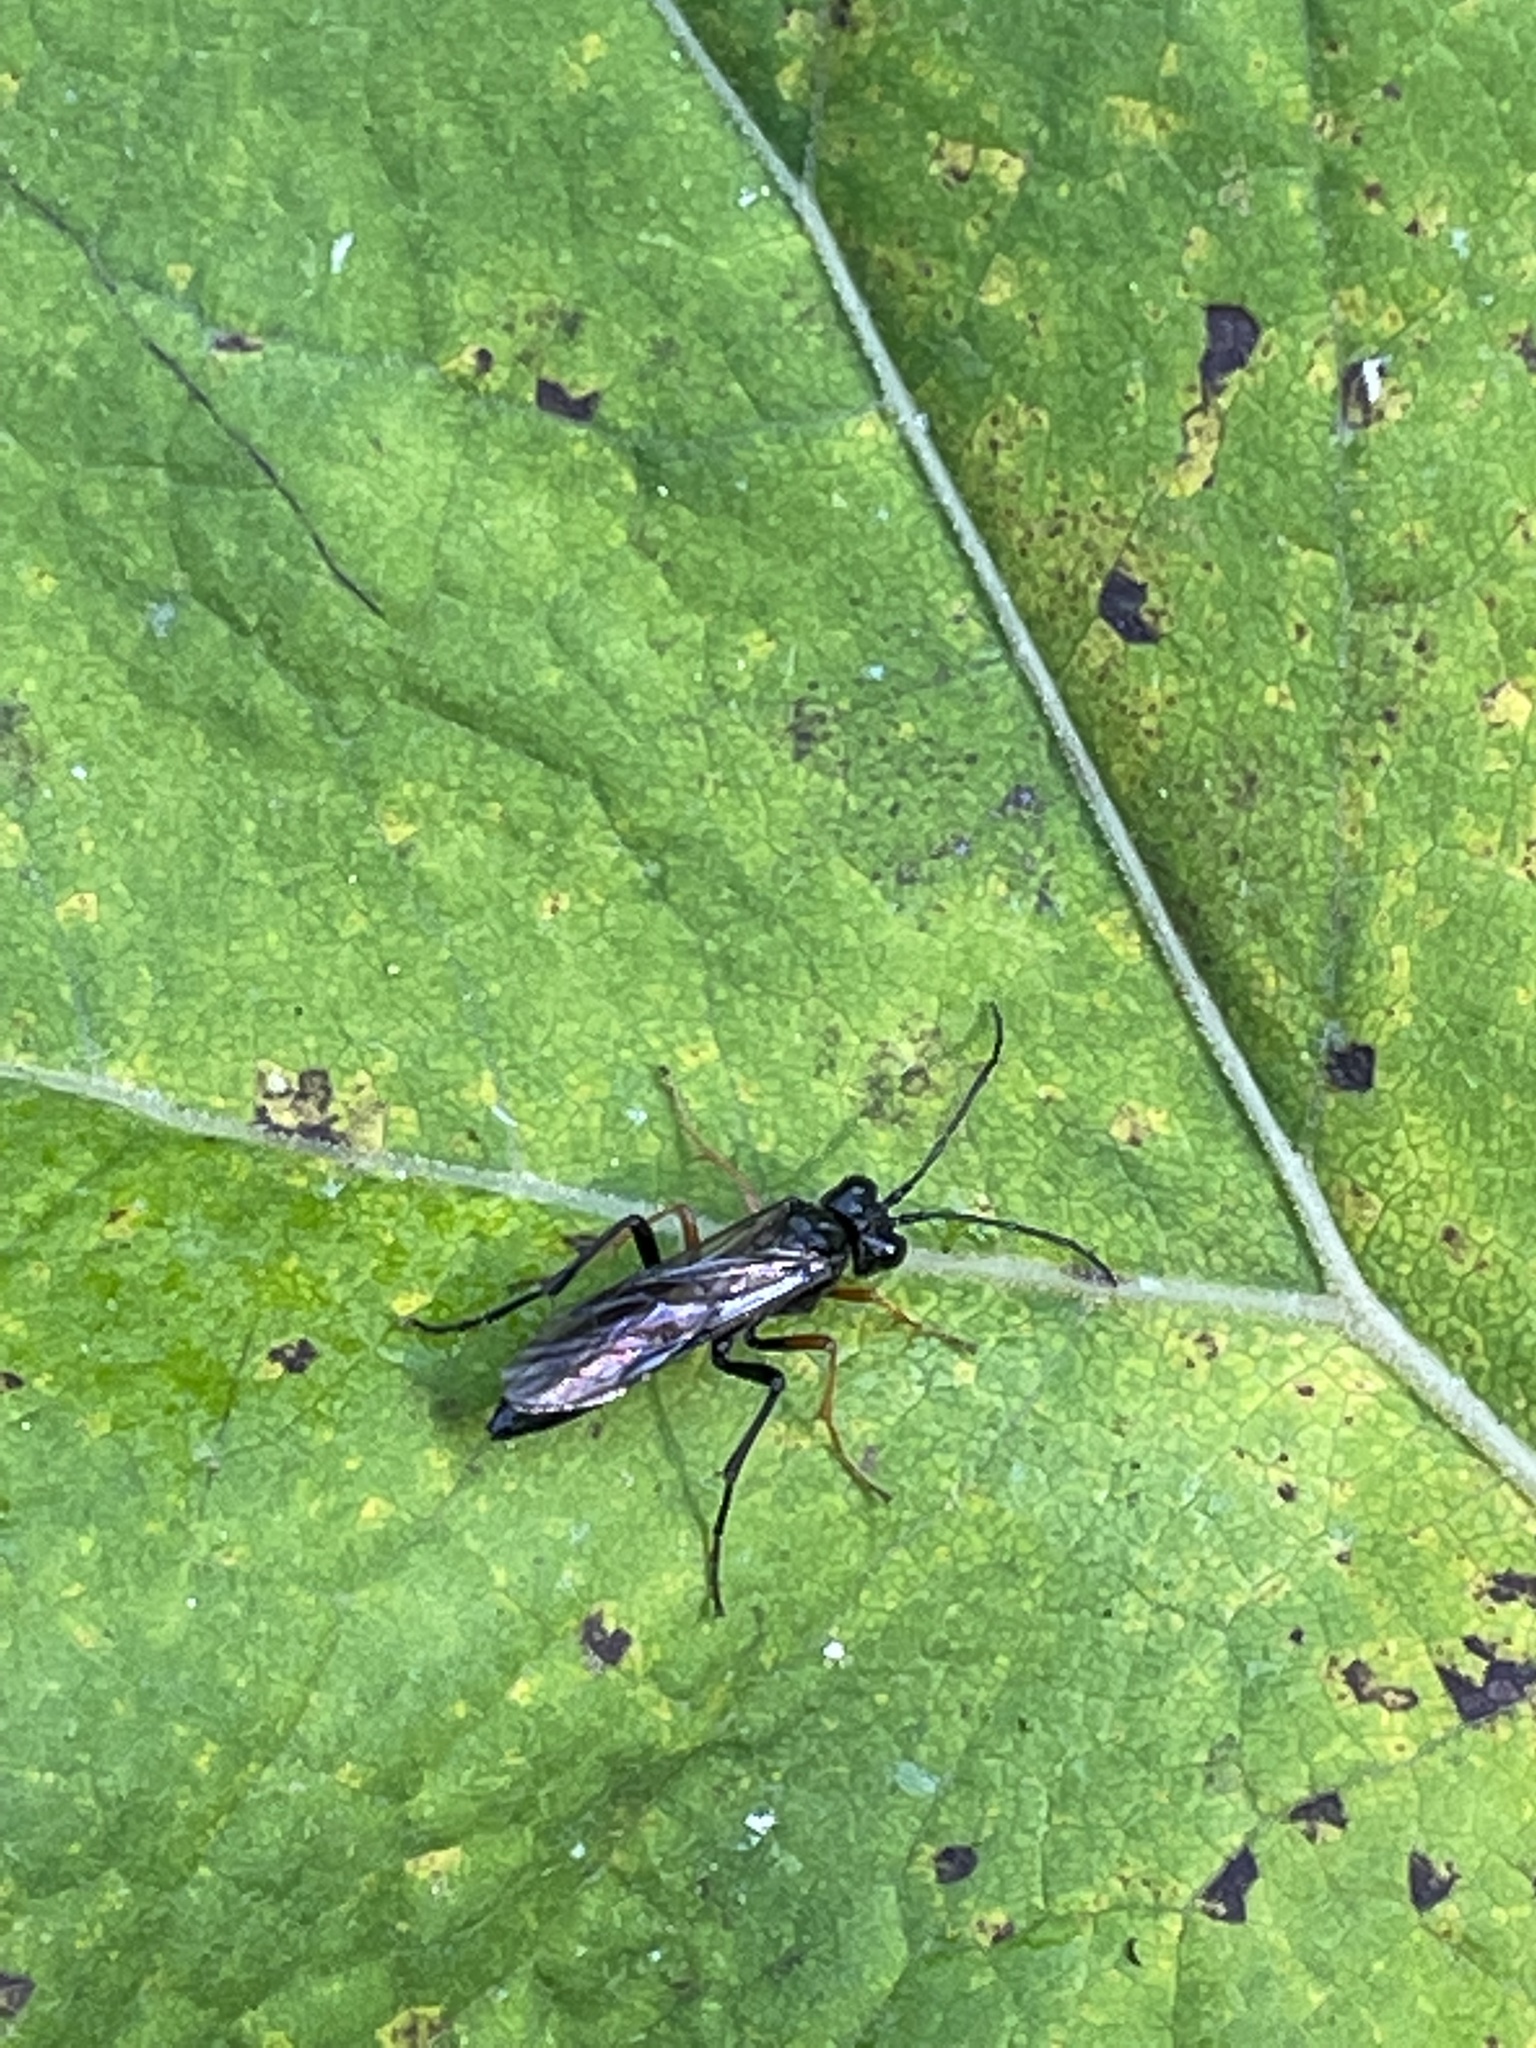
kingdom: Animalia
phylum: Arthropoda
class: Insecta
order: Hymenoptera
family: Tenthredinidae
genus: Tenthredo
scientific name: Tenthredo mandibularis
